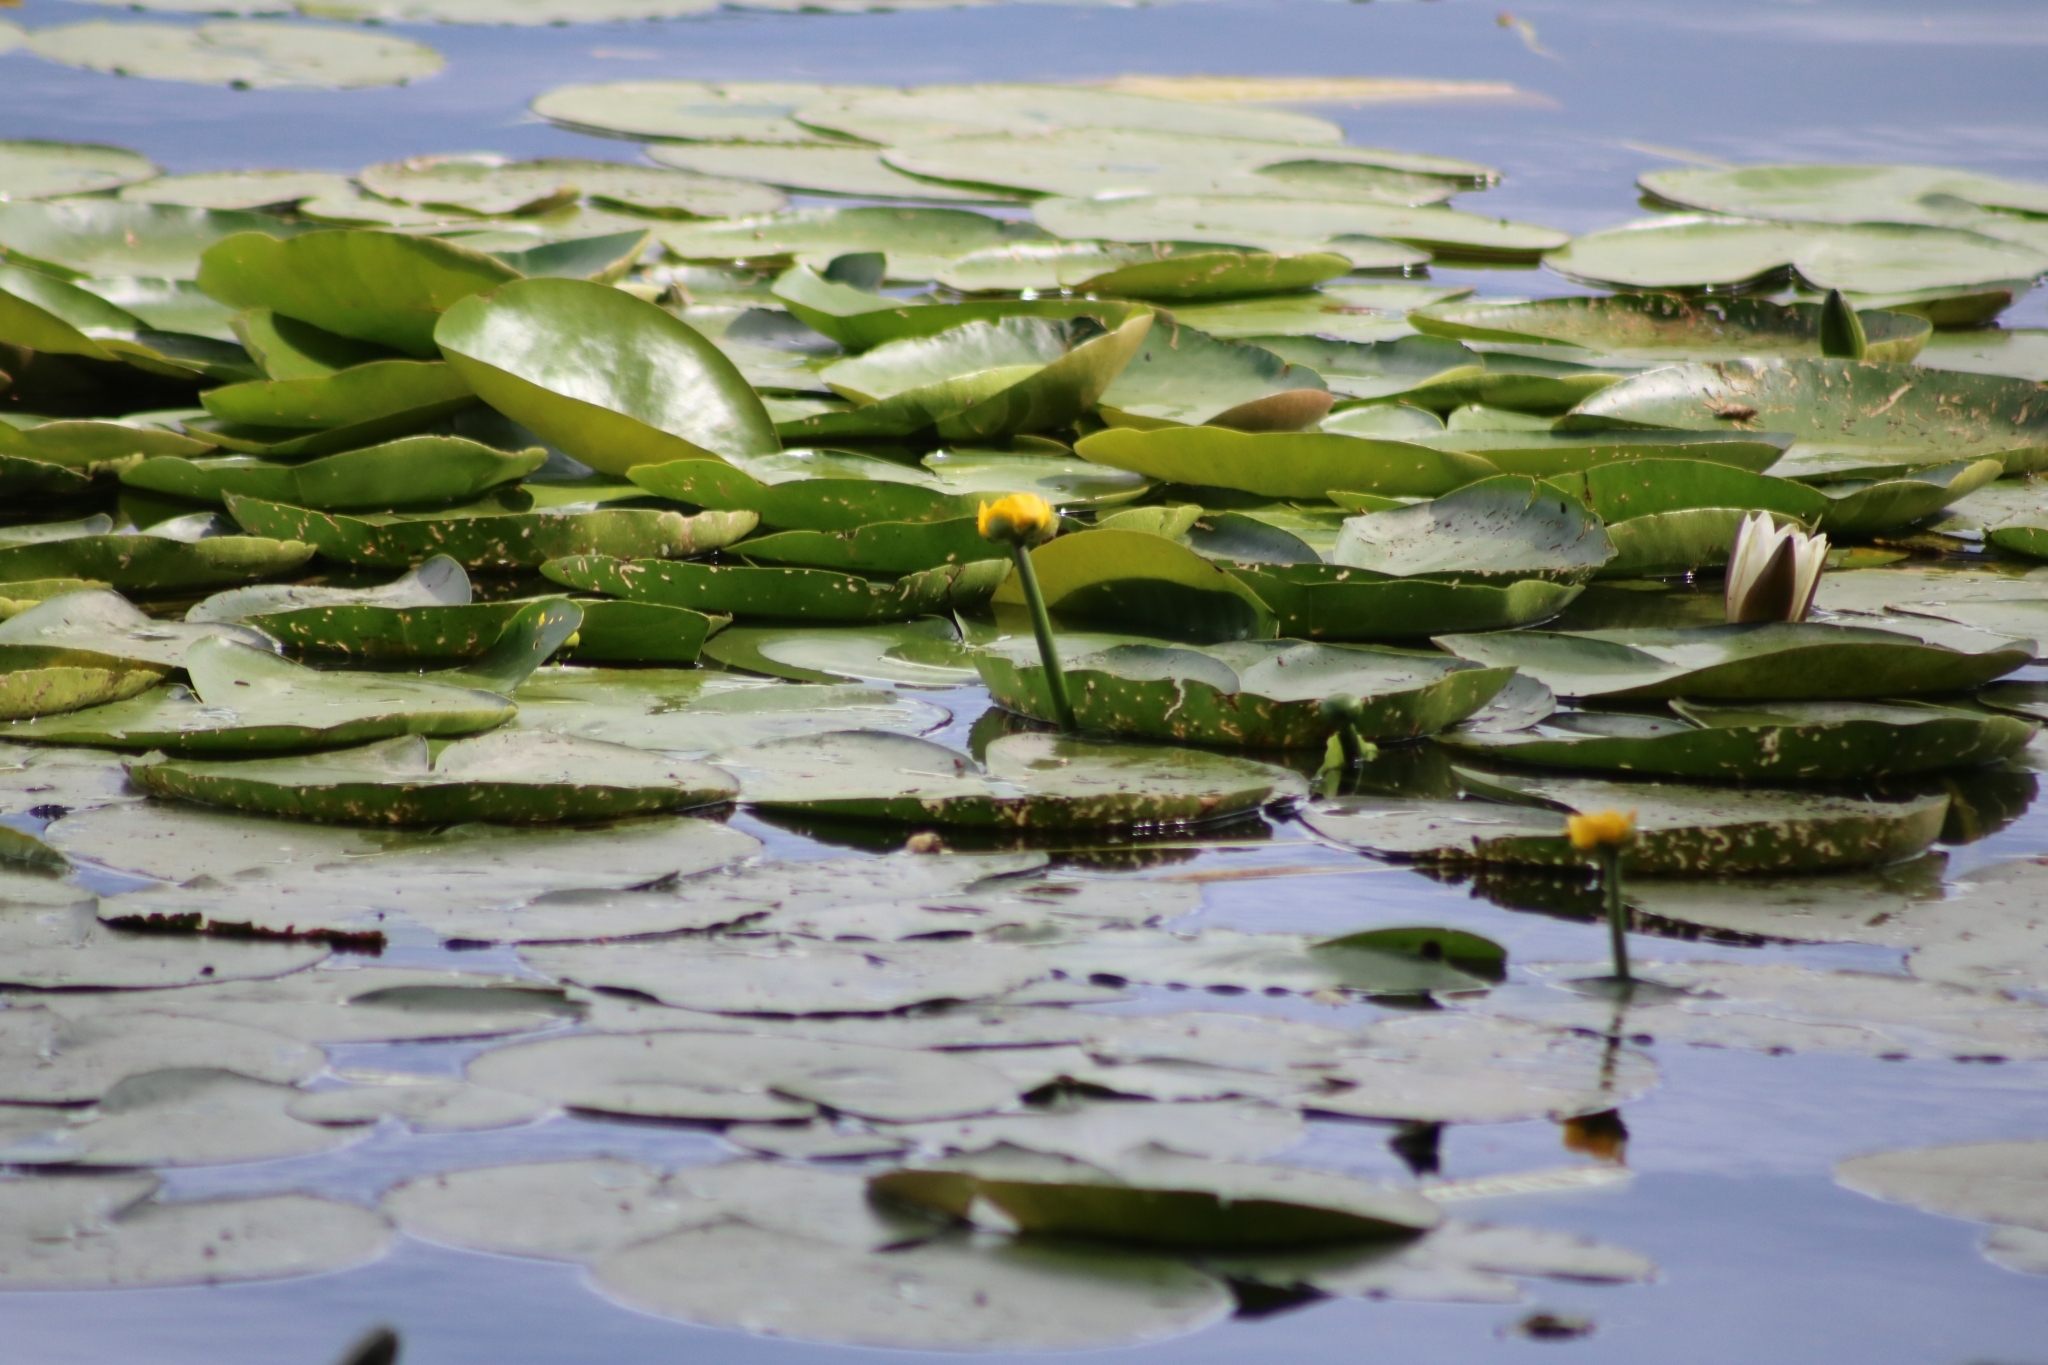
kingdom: Plantae
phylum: Tracheophyta
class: Magnoliopsida
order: Nymphaeales
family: Nymphaeaceae
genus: Nuphar
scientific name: Nuphar lutea
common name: Yellow water-lily
